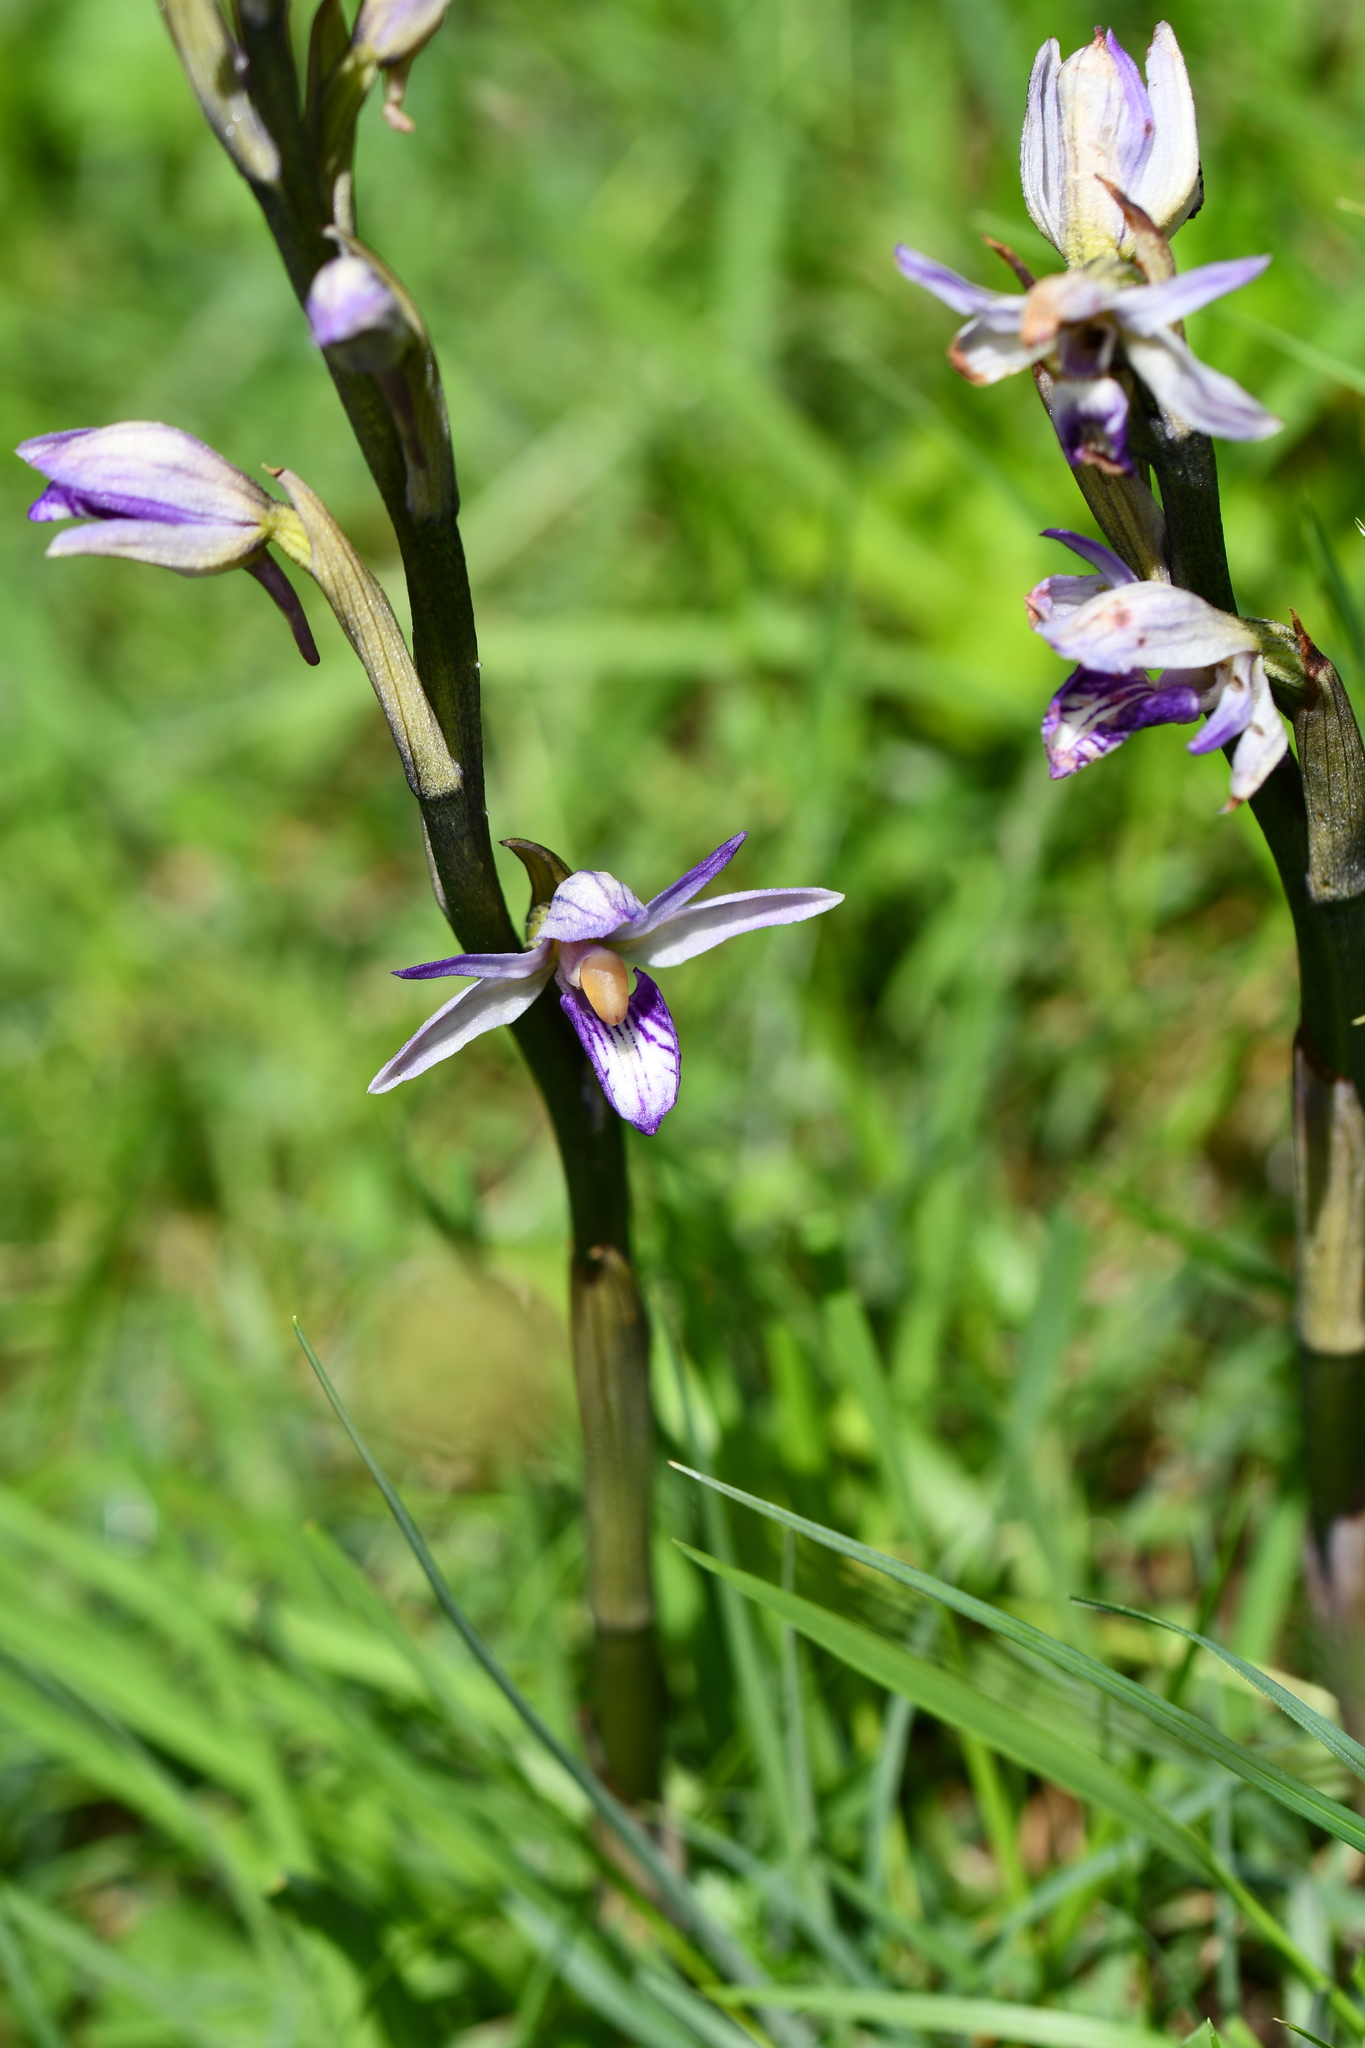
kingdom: Plantae
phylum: Tracheophyta
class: Liliopsida
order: Asparagales
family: Orchidaceae
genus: Limodorum
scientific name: Limodorum abortivum
